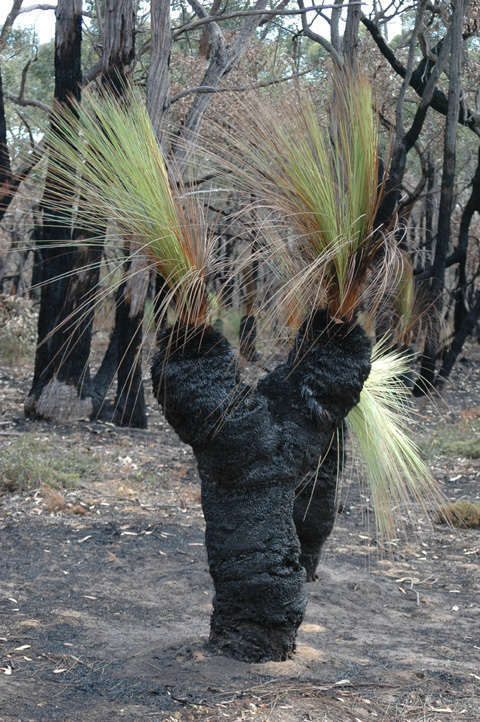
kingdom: Plantae
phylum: Tracheophyta
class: Liliopsida
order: Asparagales
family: Asphodelaceae
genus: Xanthorrhoea
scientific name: Xanthorrhoea australis
